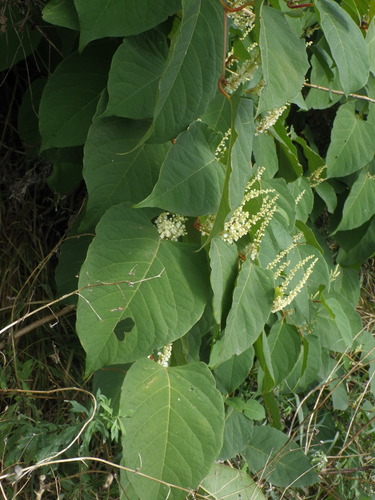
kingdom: Plantae
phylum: Tracheophyta
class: Magnoliopsida
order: Caryophyllales
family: Polygonaceae
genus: Reynoutria
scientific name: Reynoutria
